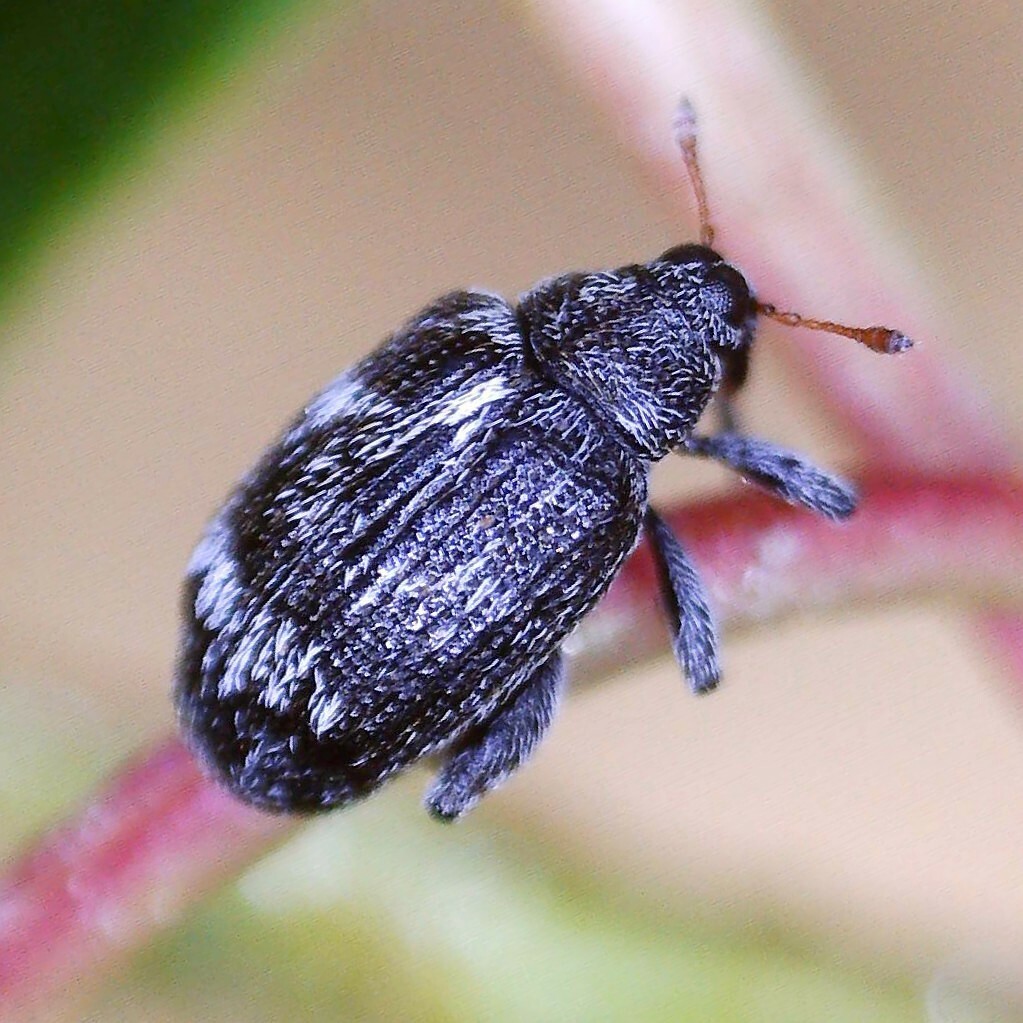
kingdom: Animalia
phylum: Arthropoda
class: Insecta
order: Coleoptera
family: Curculionidae
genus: Orchestes
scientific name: Orchestes rusci
